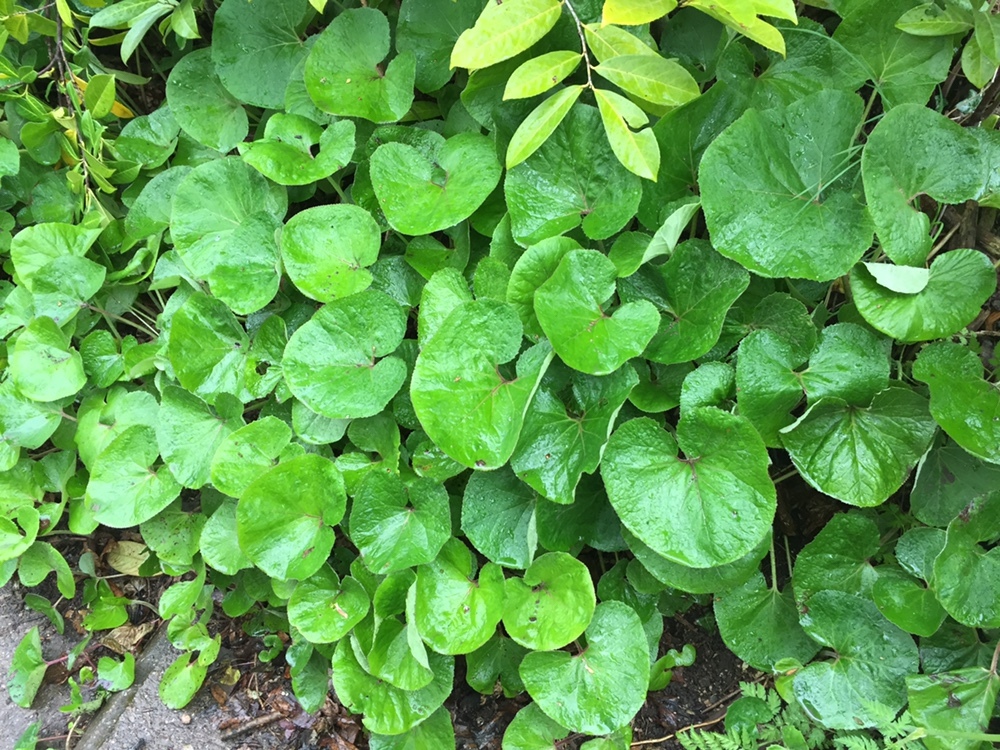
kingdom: Plantae
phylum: Tracheophyta
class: Magnoliopsida
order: Asterales
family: Asteraceae
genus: Petasites
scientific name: Petasites pyrenaicus
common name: Winter heliotrope
